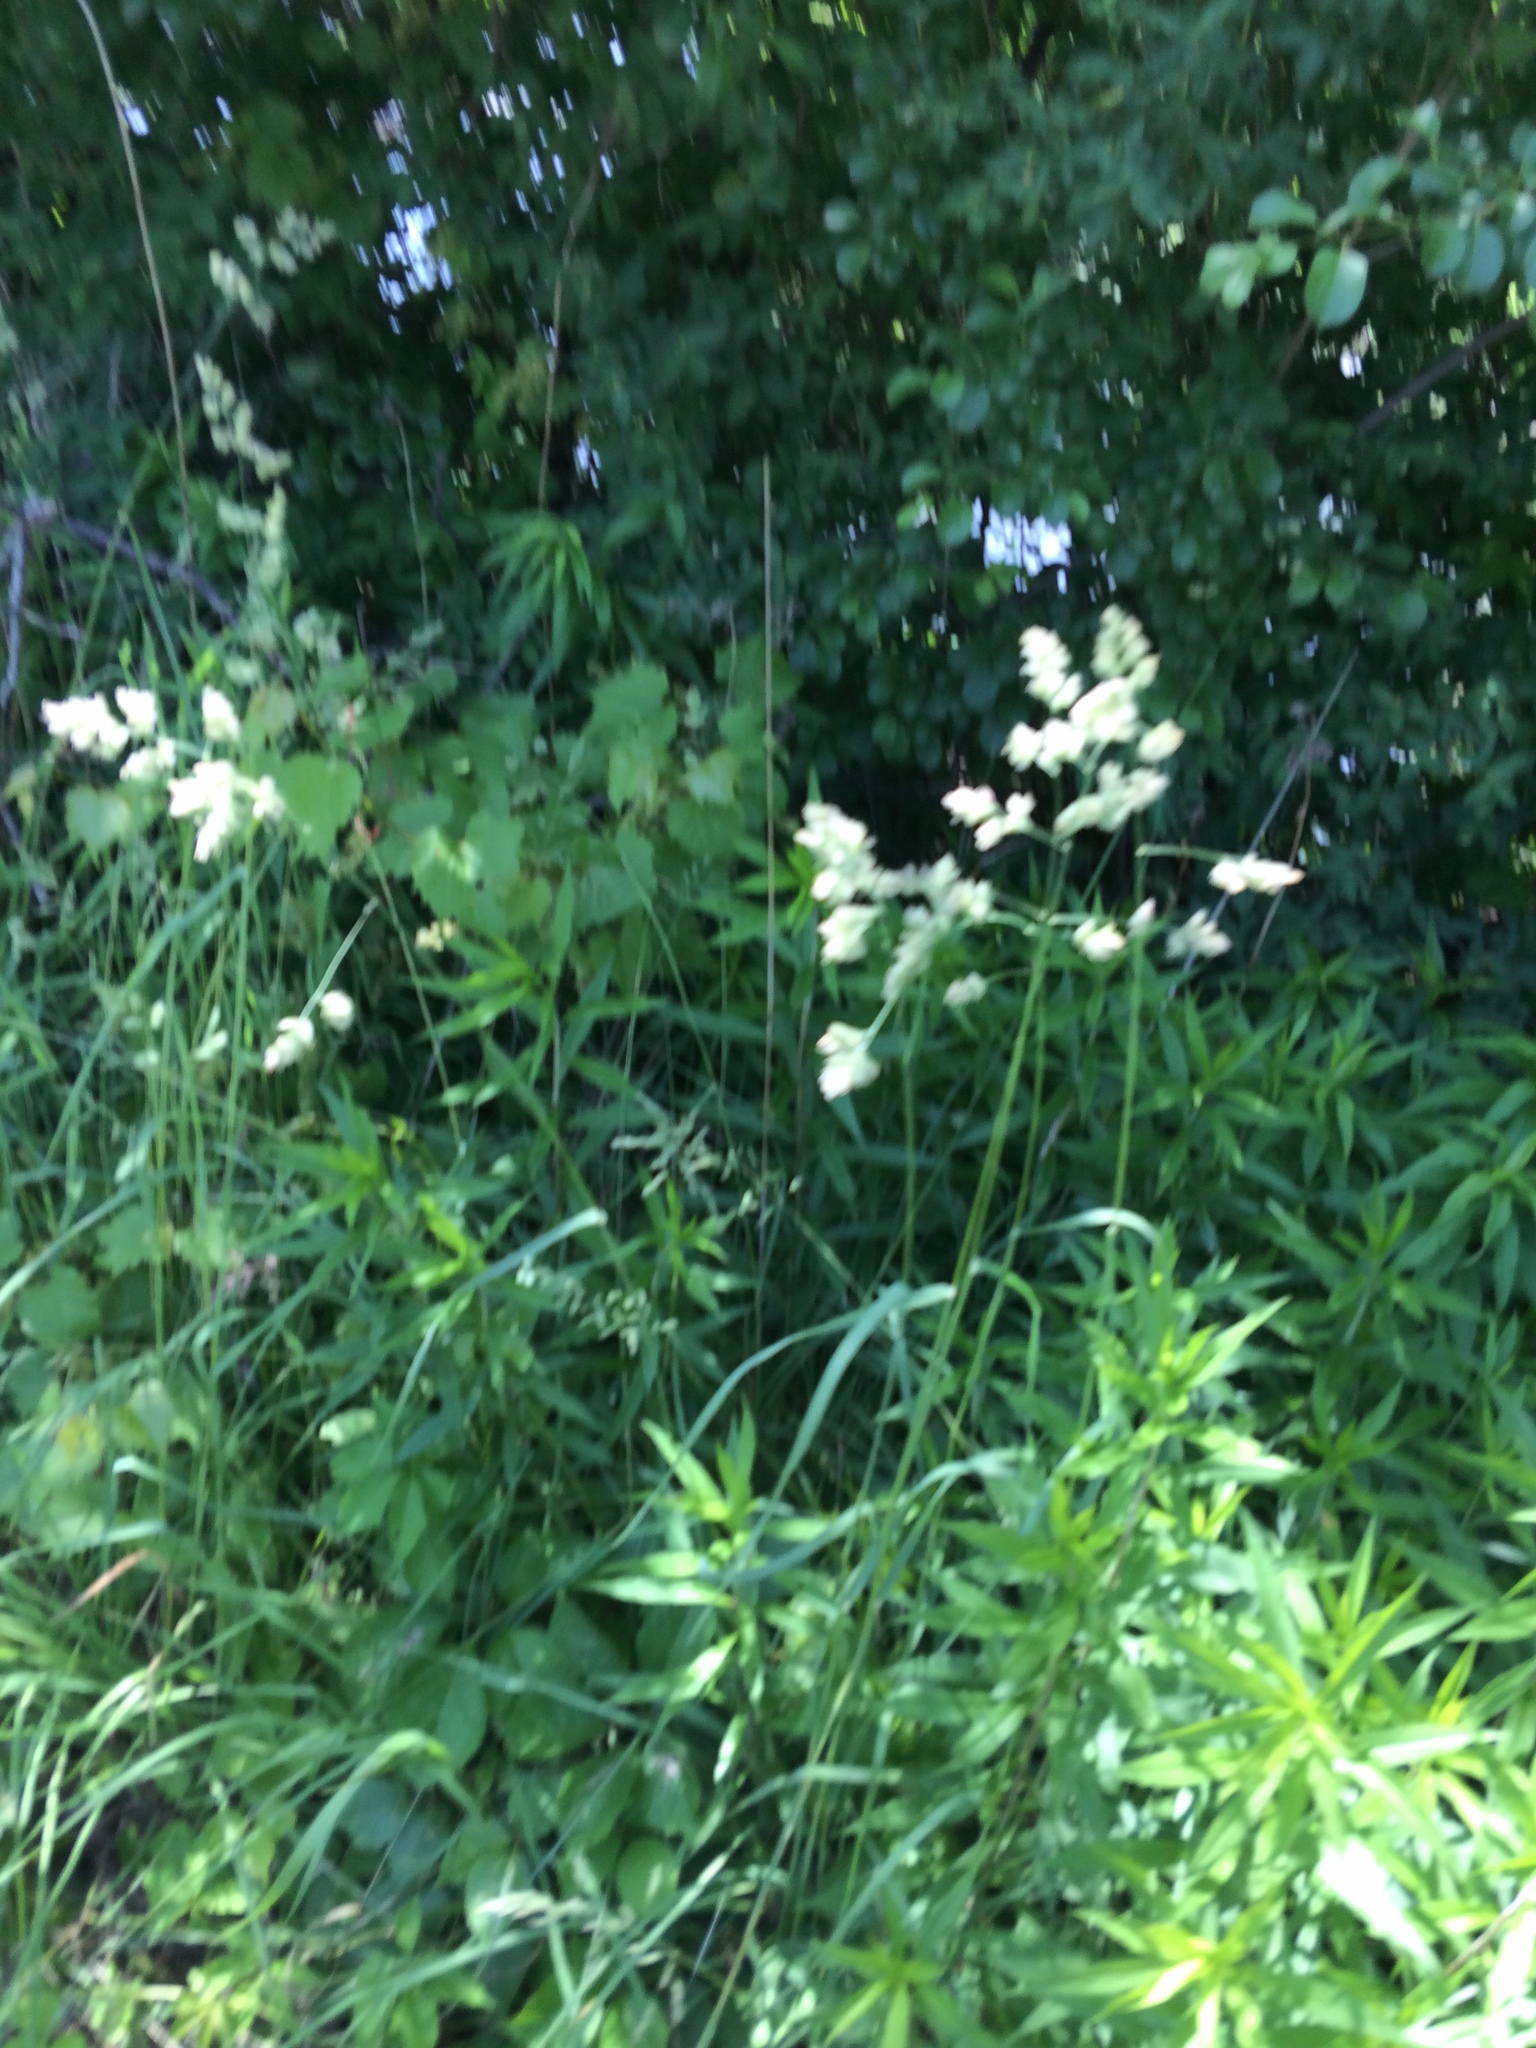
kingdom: Plantae
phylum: Tracheophyta
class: Liliopsida
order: Poales
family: Poaceae
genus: Dactylis
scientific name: Dactylis glomerata
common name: Orchardgrass
